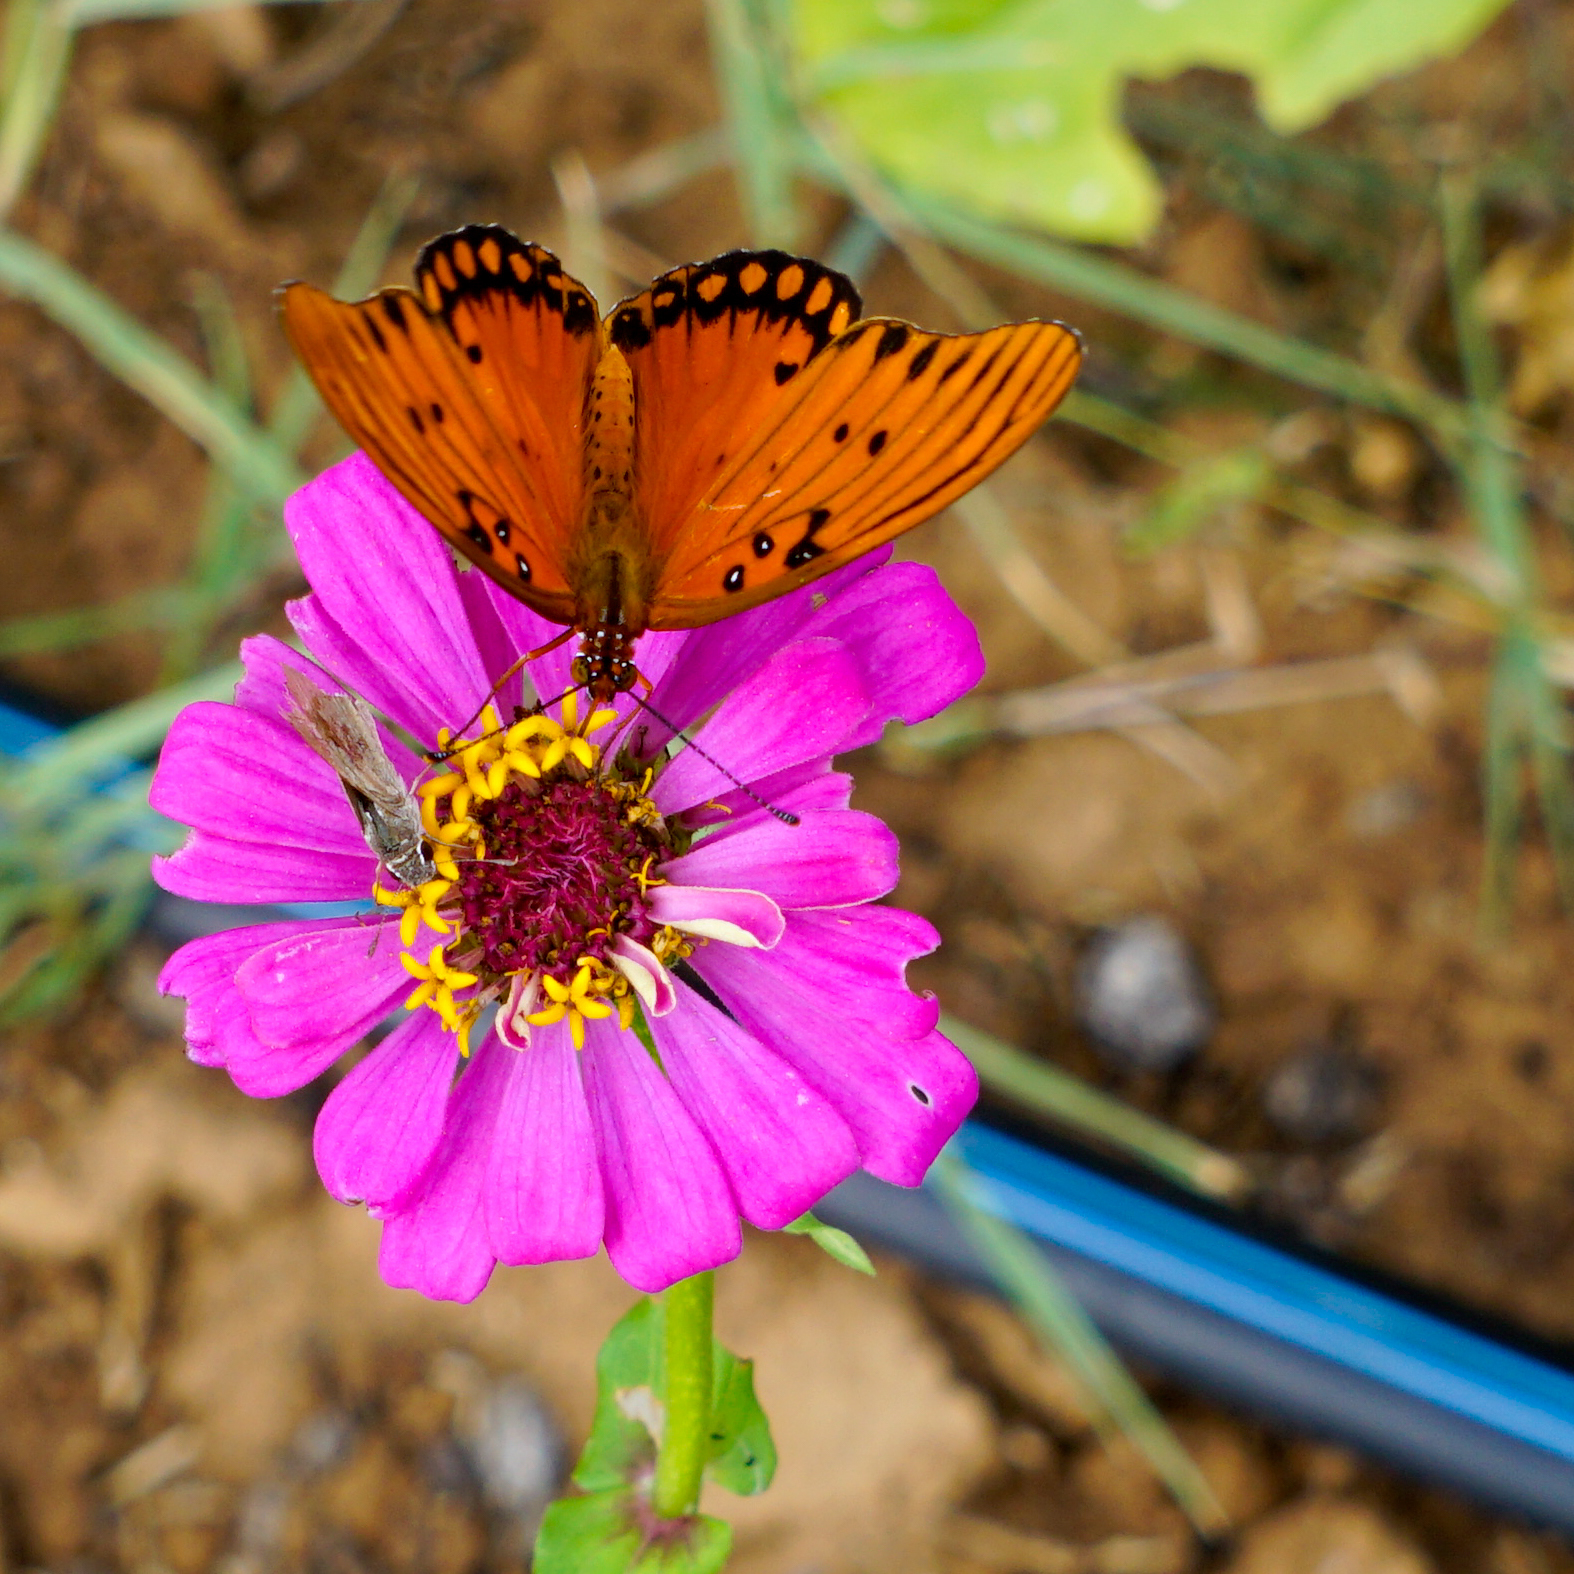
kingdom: Animalia
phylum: Arthropoda
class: Insecta
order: Lepidoptera
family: Nymphalidae
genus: Dione
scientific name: Dione vanillae
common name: Gulf fritillary
